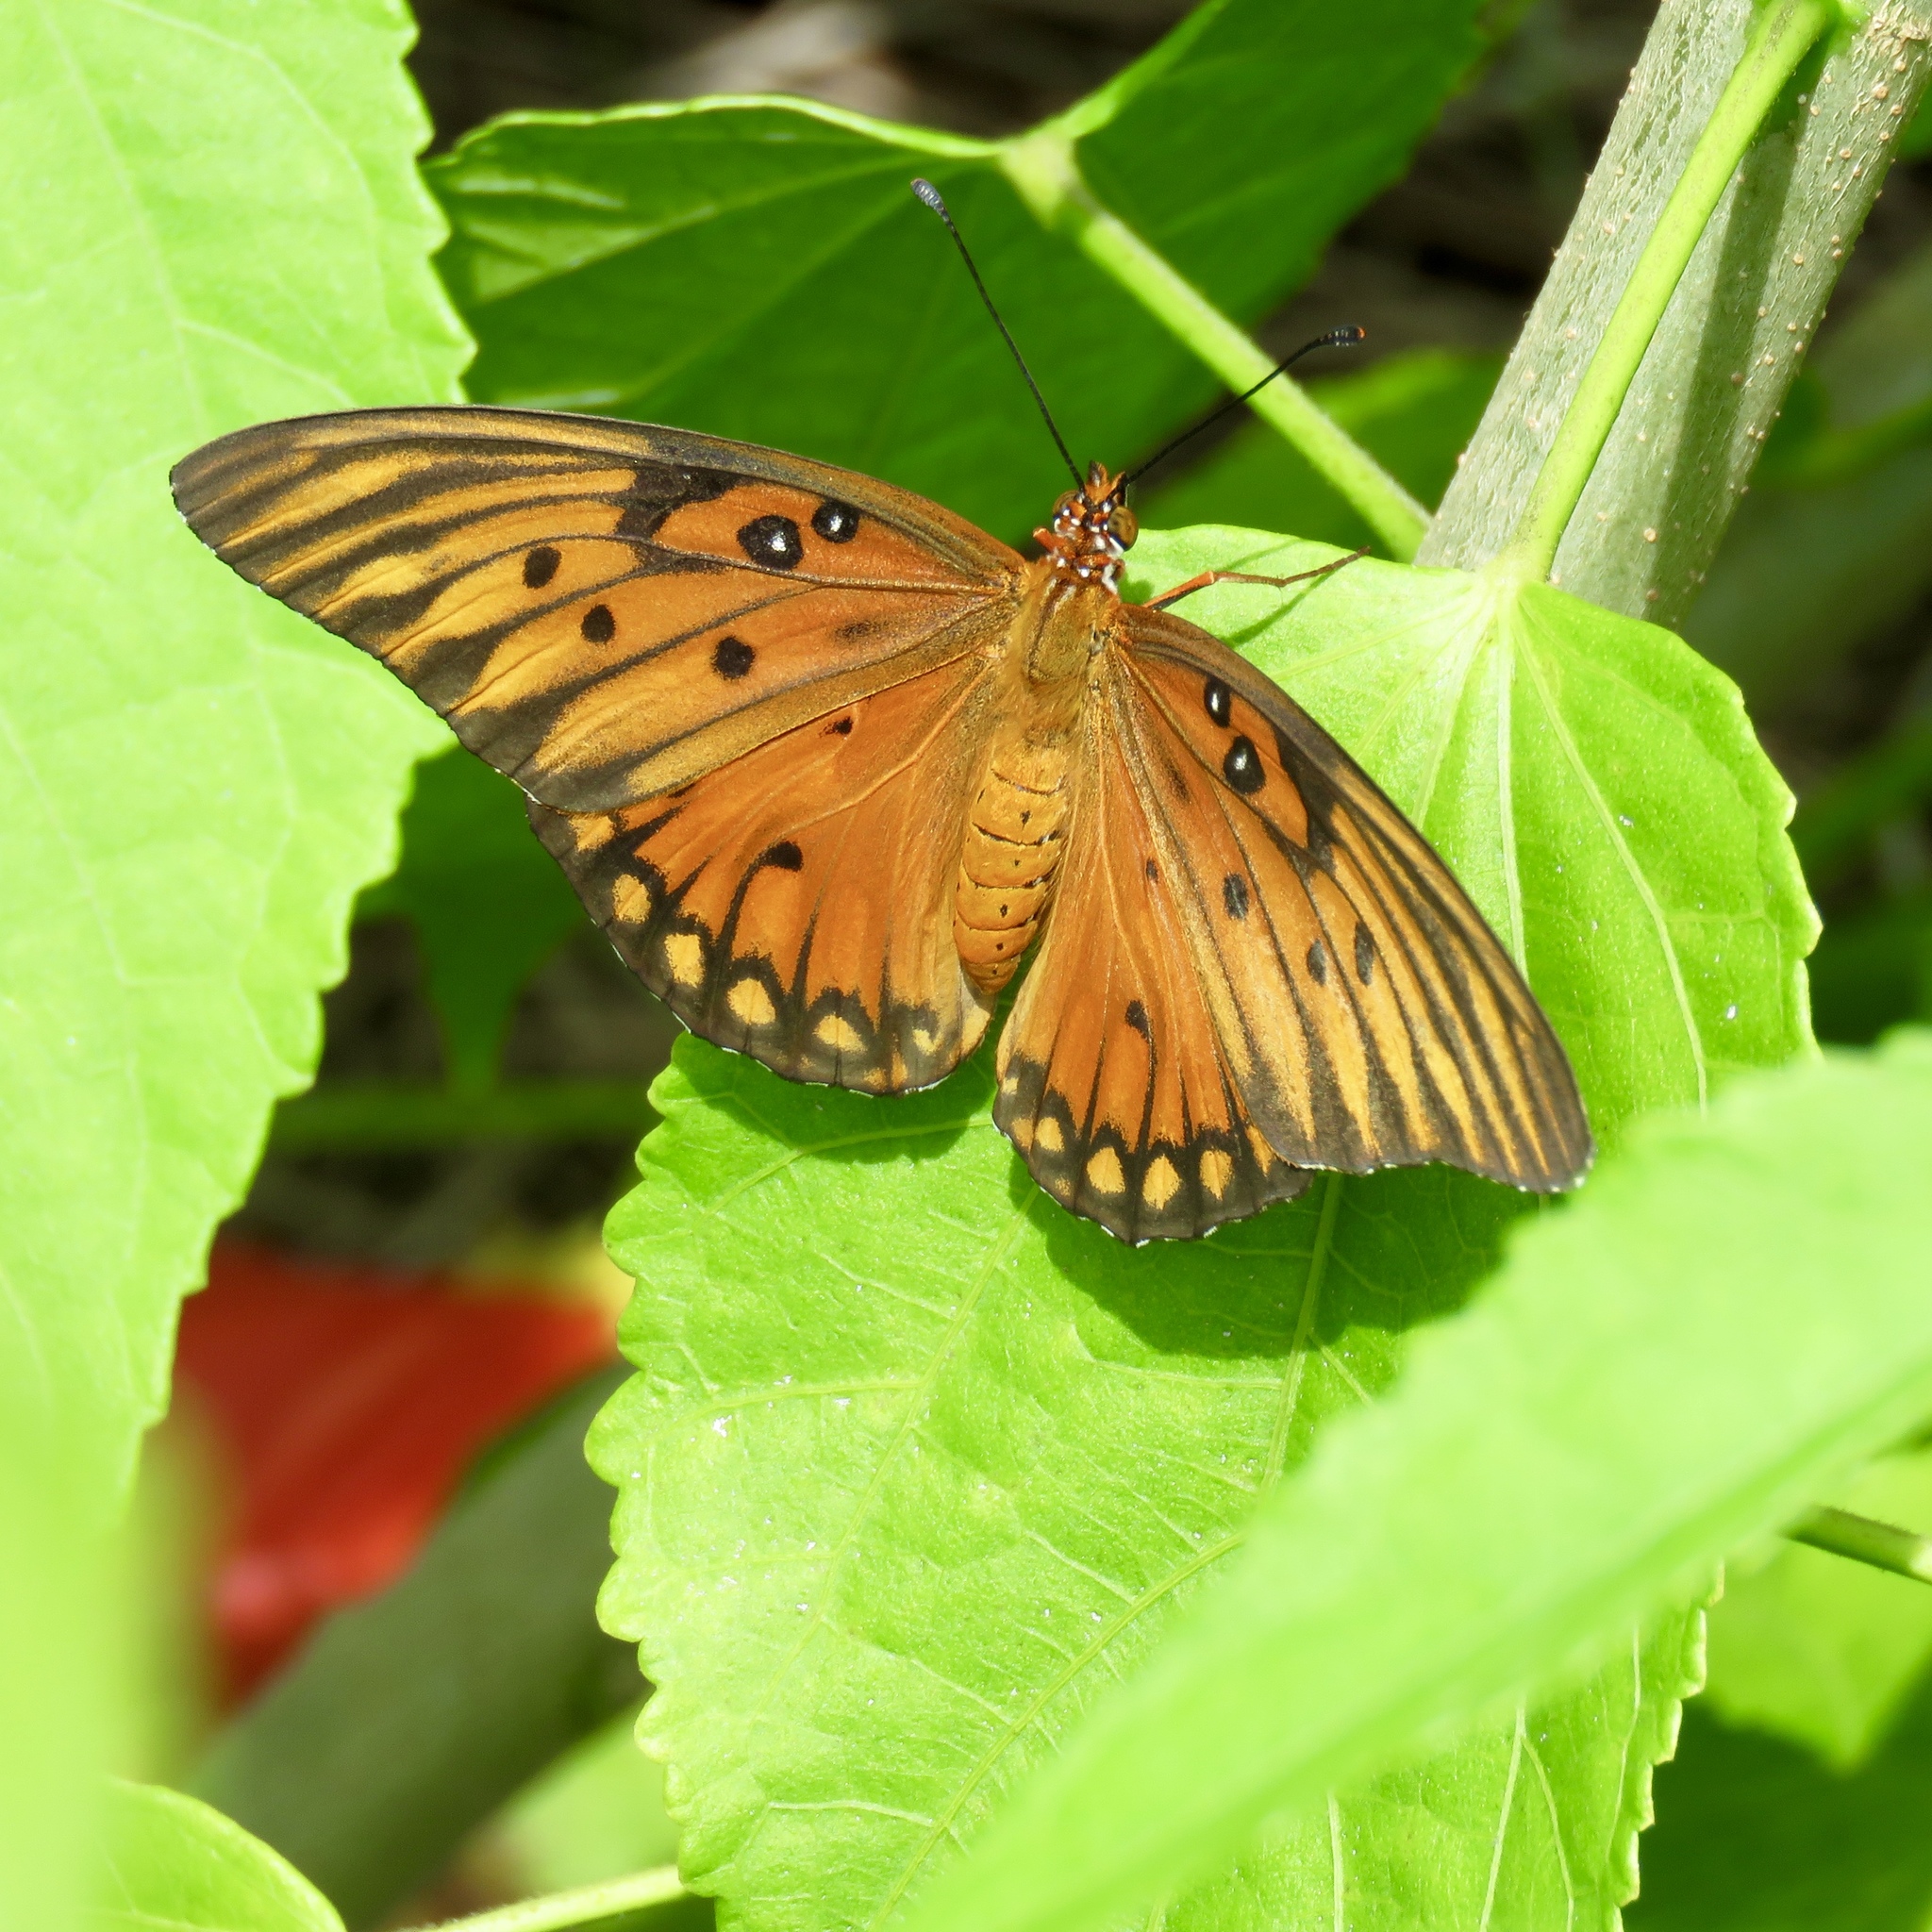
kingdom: Animalia
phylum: Arthropoda
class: Insecta
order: Lepidoptera
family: Nymphalidae
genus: Dione
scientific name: Dione vanillae
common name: Gulf fritillary
